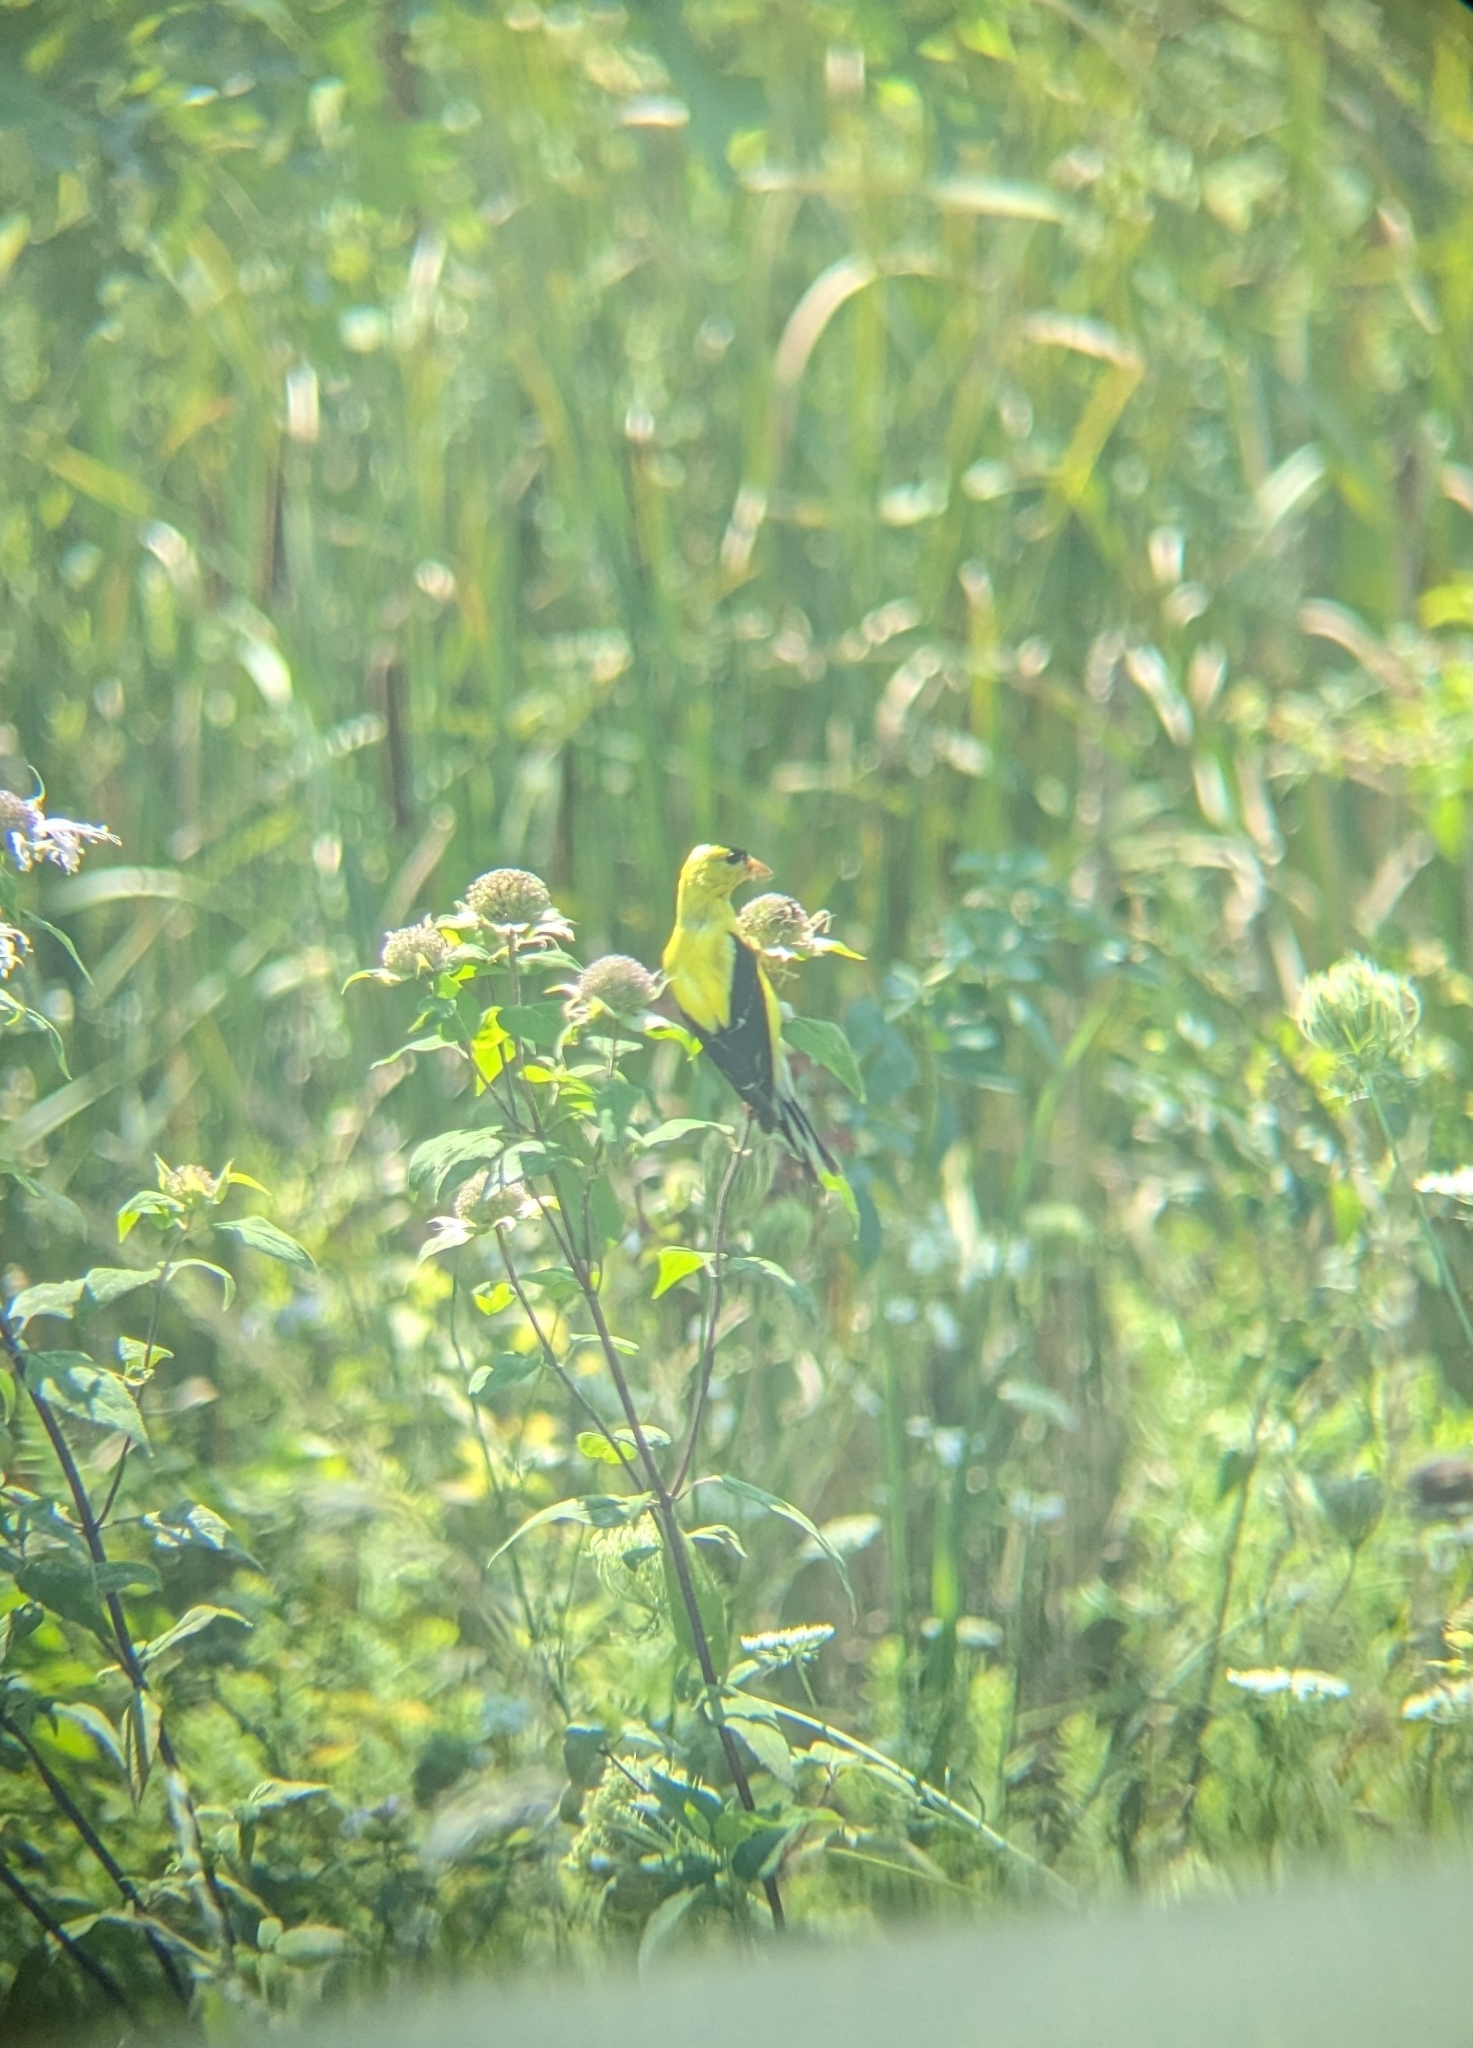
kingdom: Animalia
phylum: Chordata
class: Aves
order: Passeriformes
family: Fringillidae
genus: Spinus
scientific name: Spinus tristis
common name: American goldfinch
